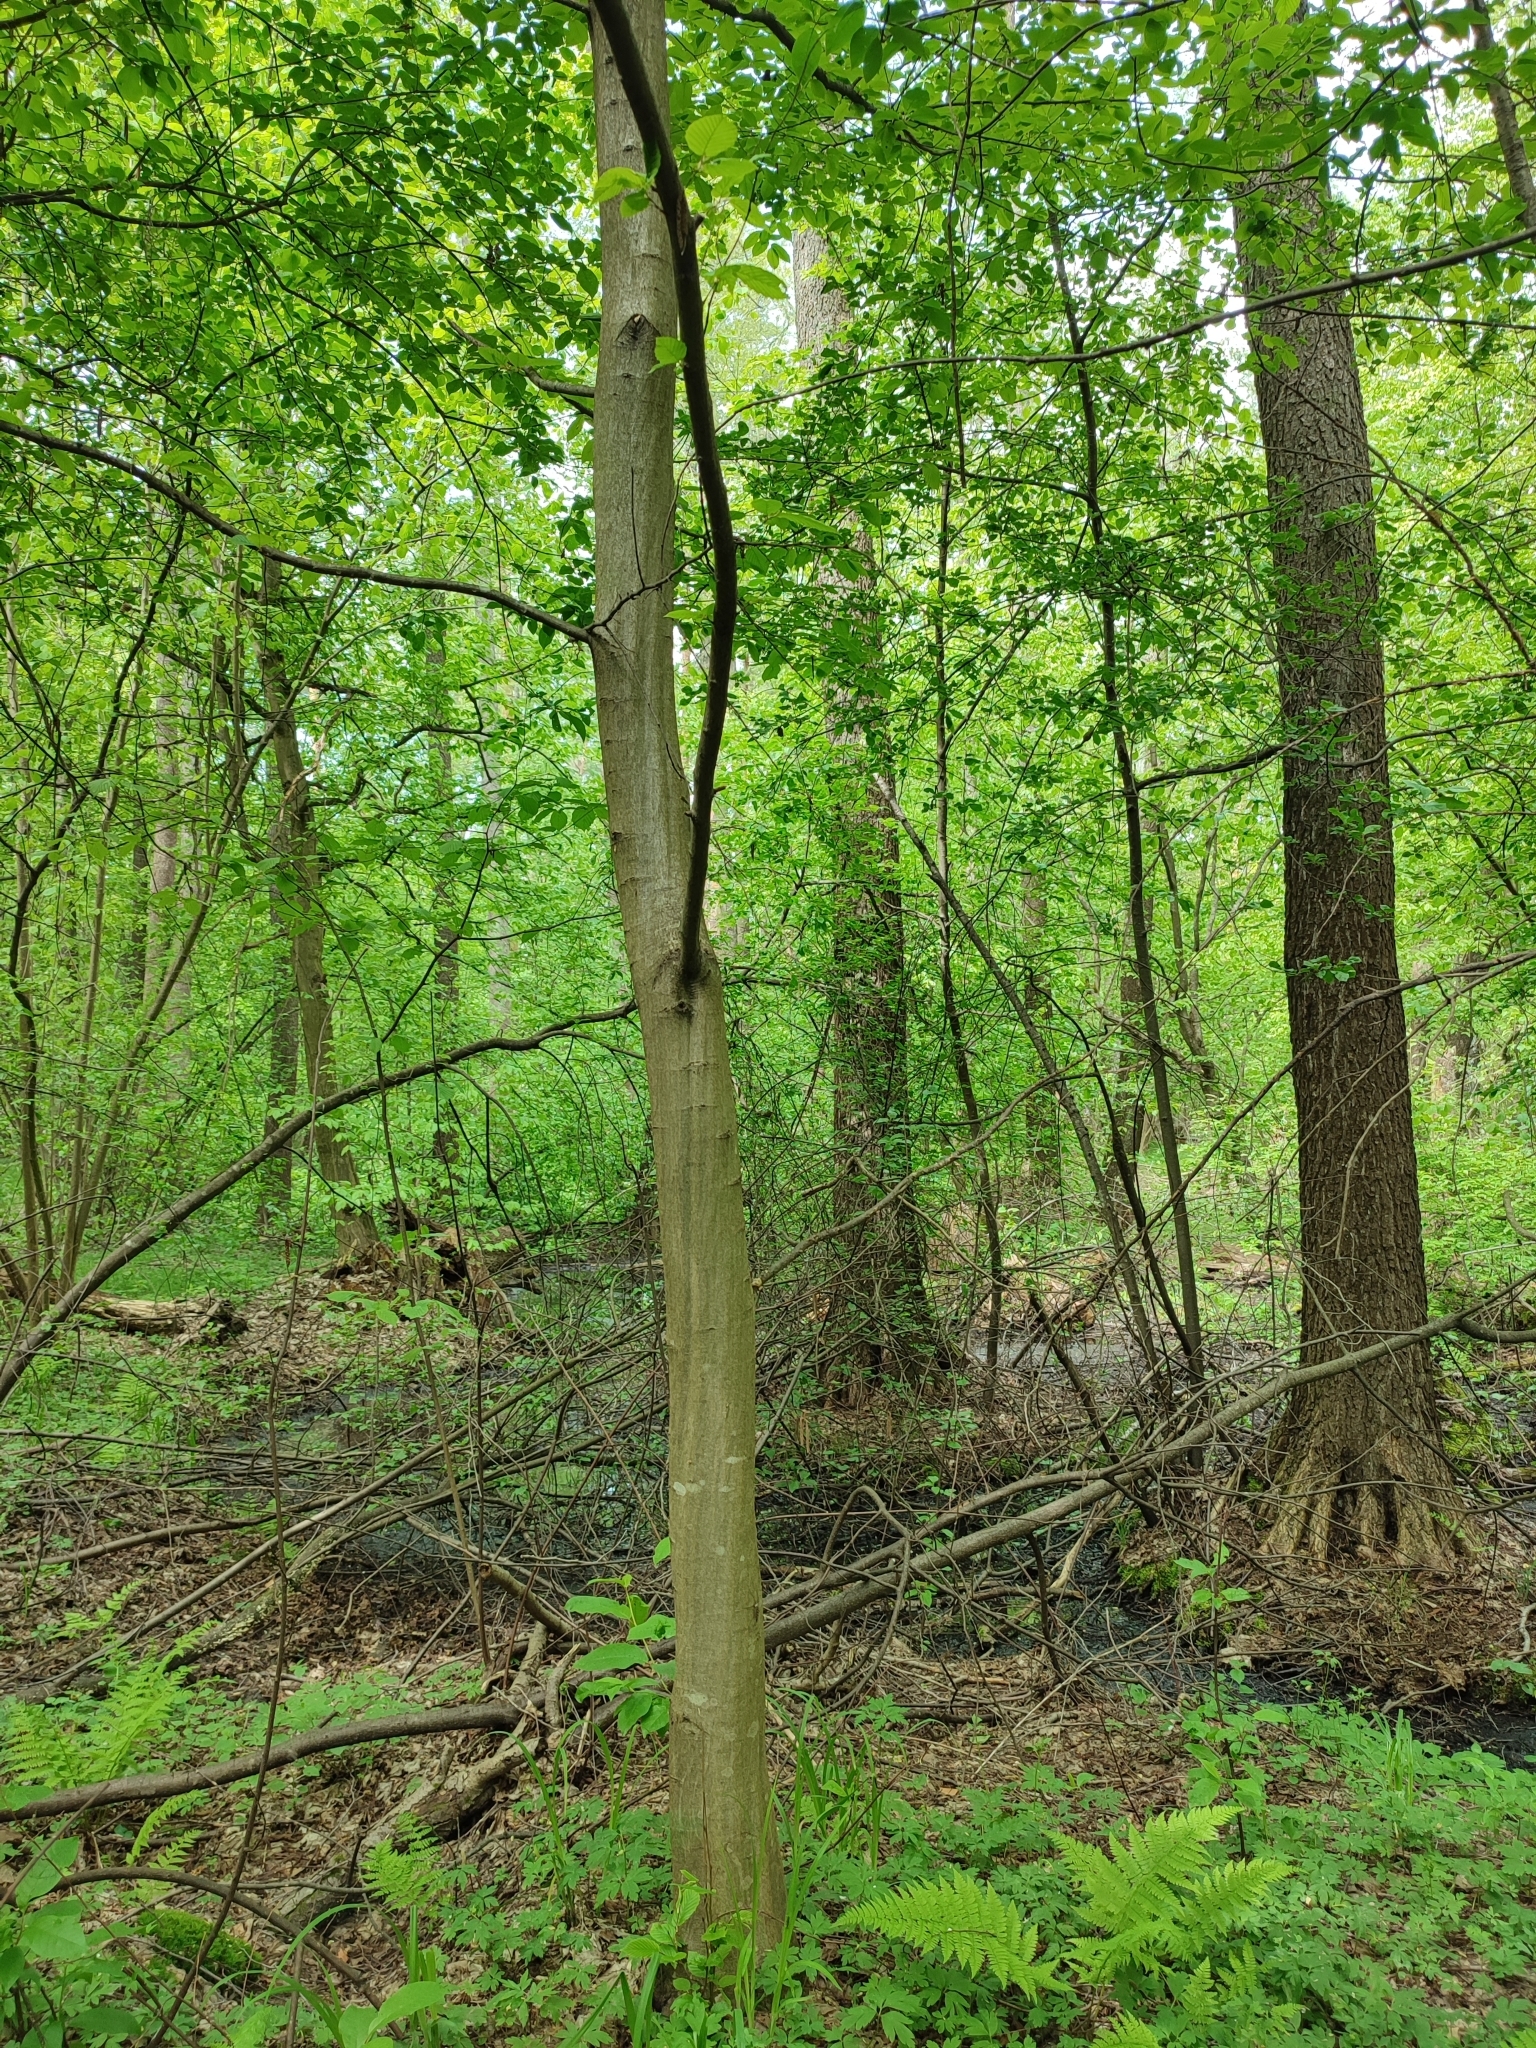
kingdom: Plantae
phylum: Tracheophyta
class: Magnoliopsida
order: Fagales
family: Betulaceae
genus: Carpinus
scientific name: Carpinus betulus
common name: Hornbeam
